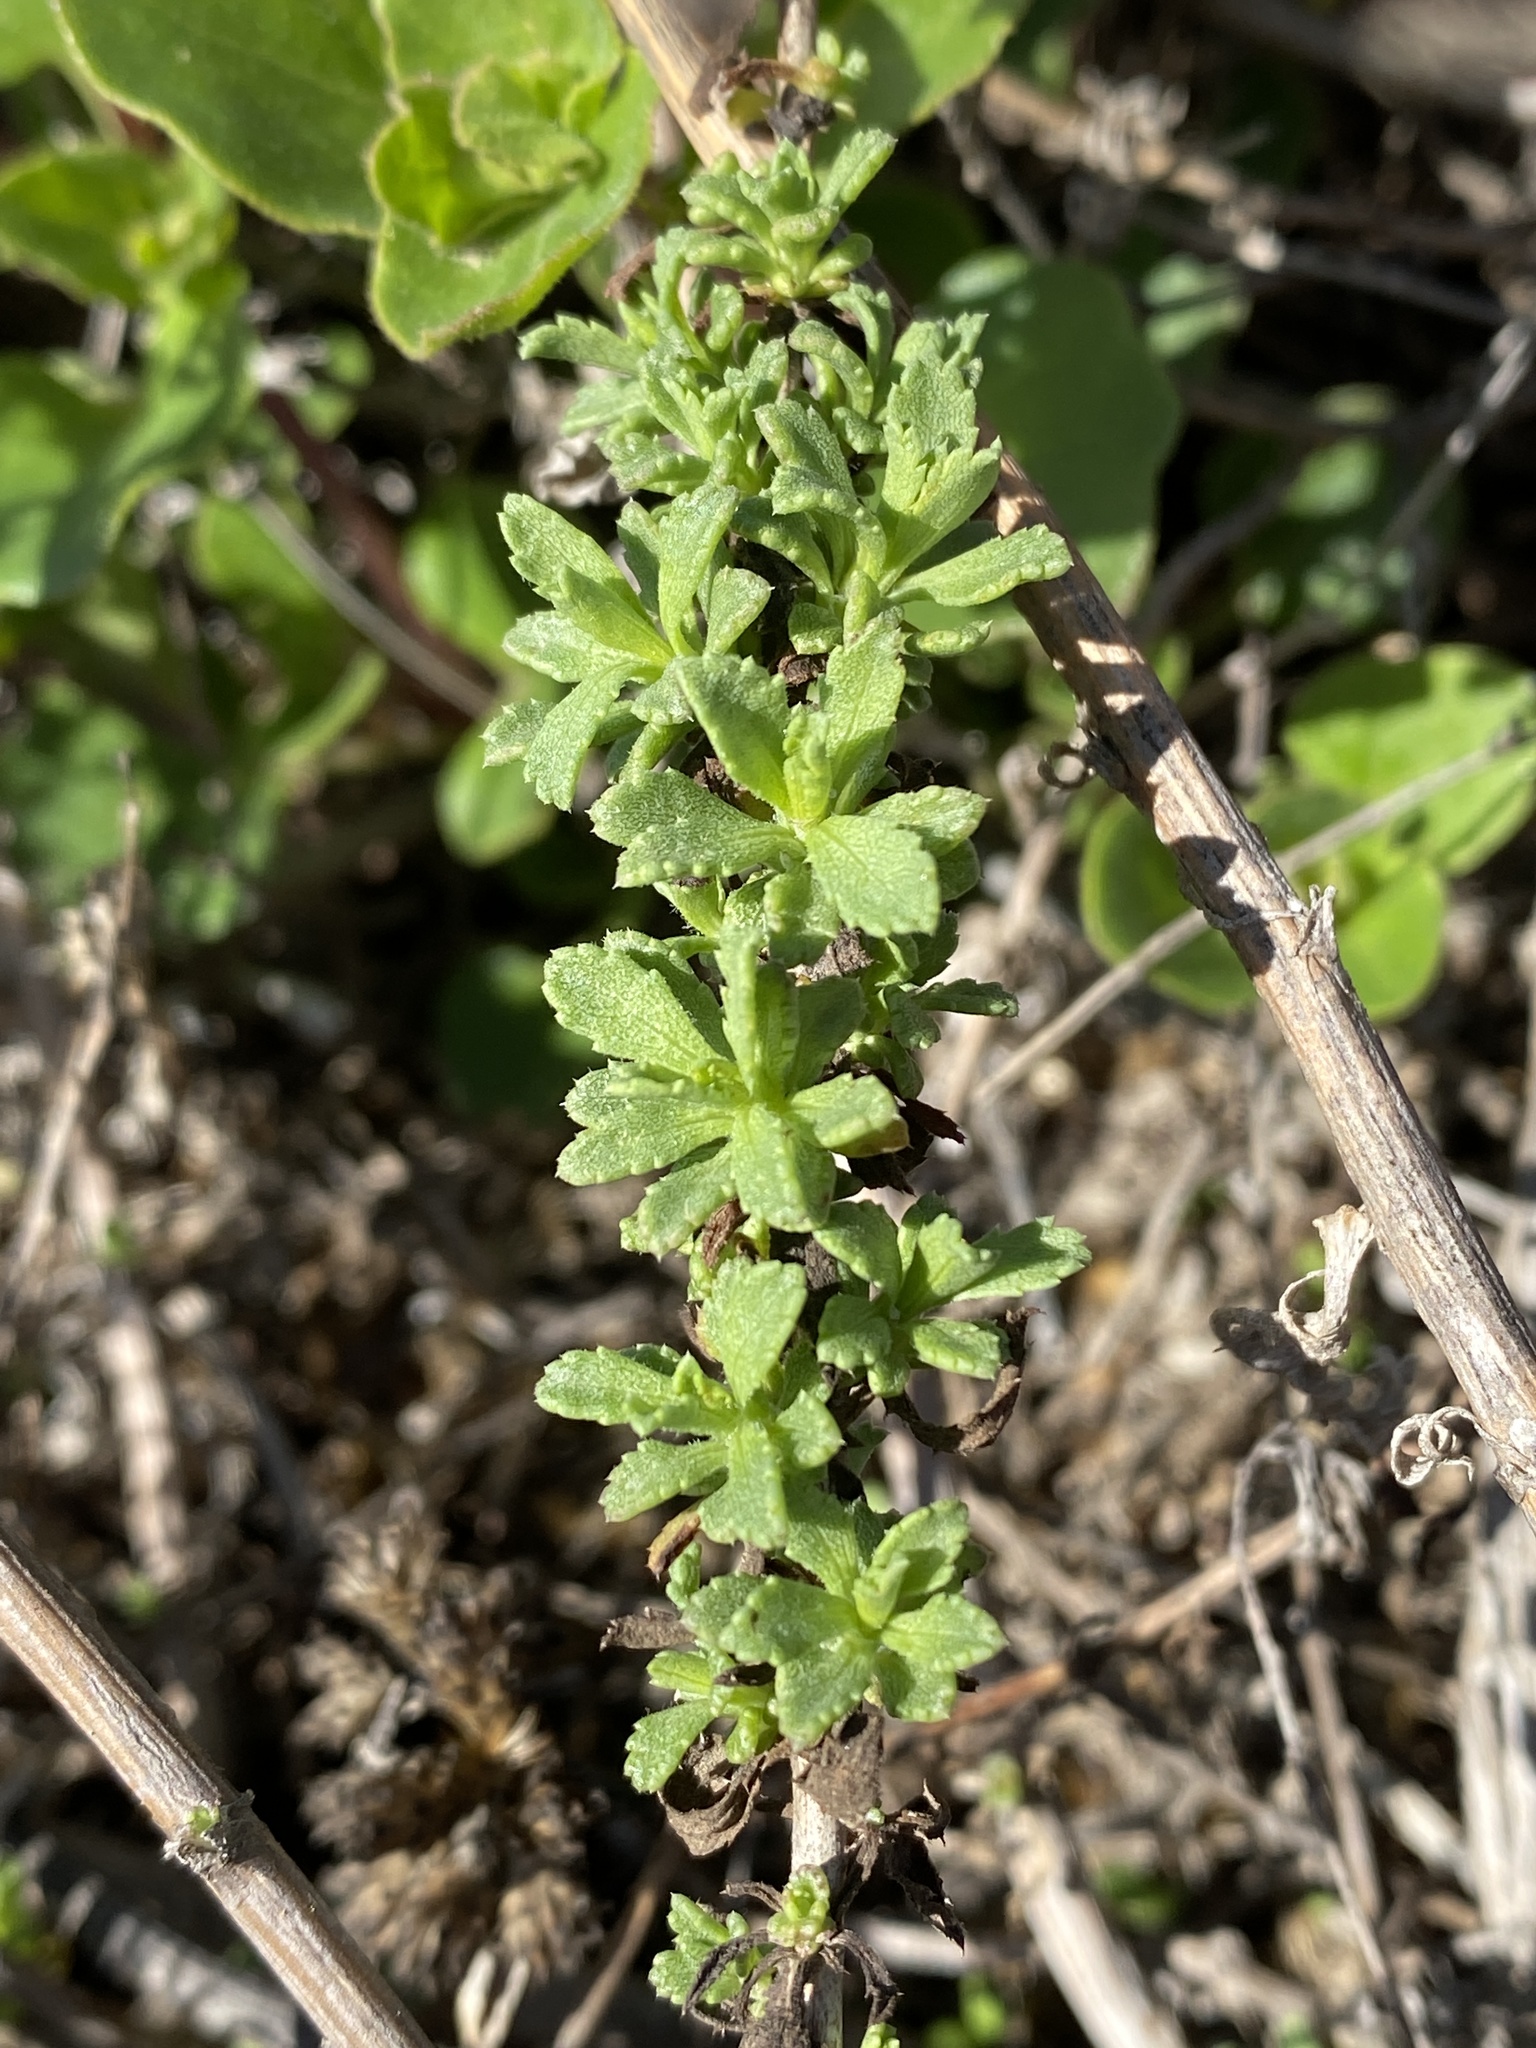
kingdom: Plantae
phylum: Tracheophyta
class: Magnoliopsida
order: Asterales
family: Asteraceae
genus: Isocoma
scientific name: Isocoma menziesii
